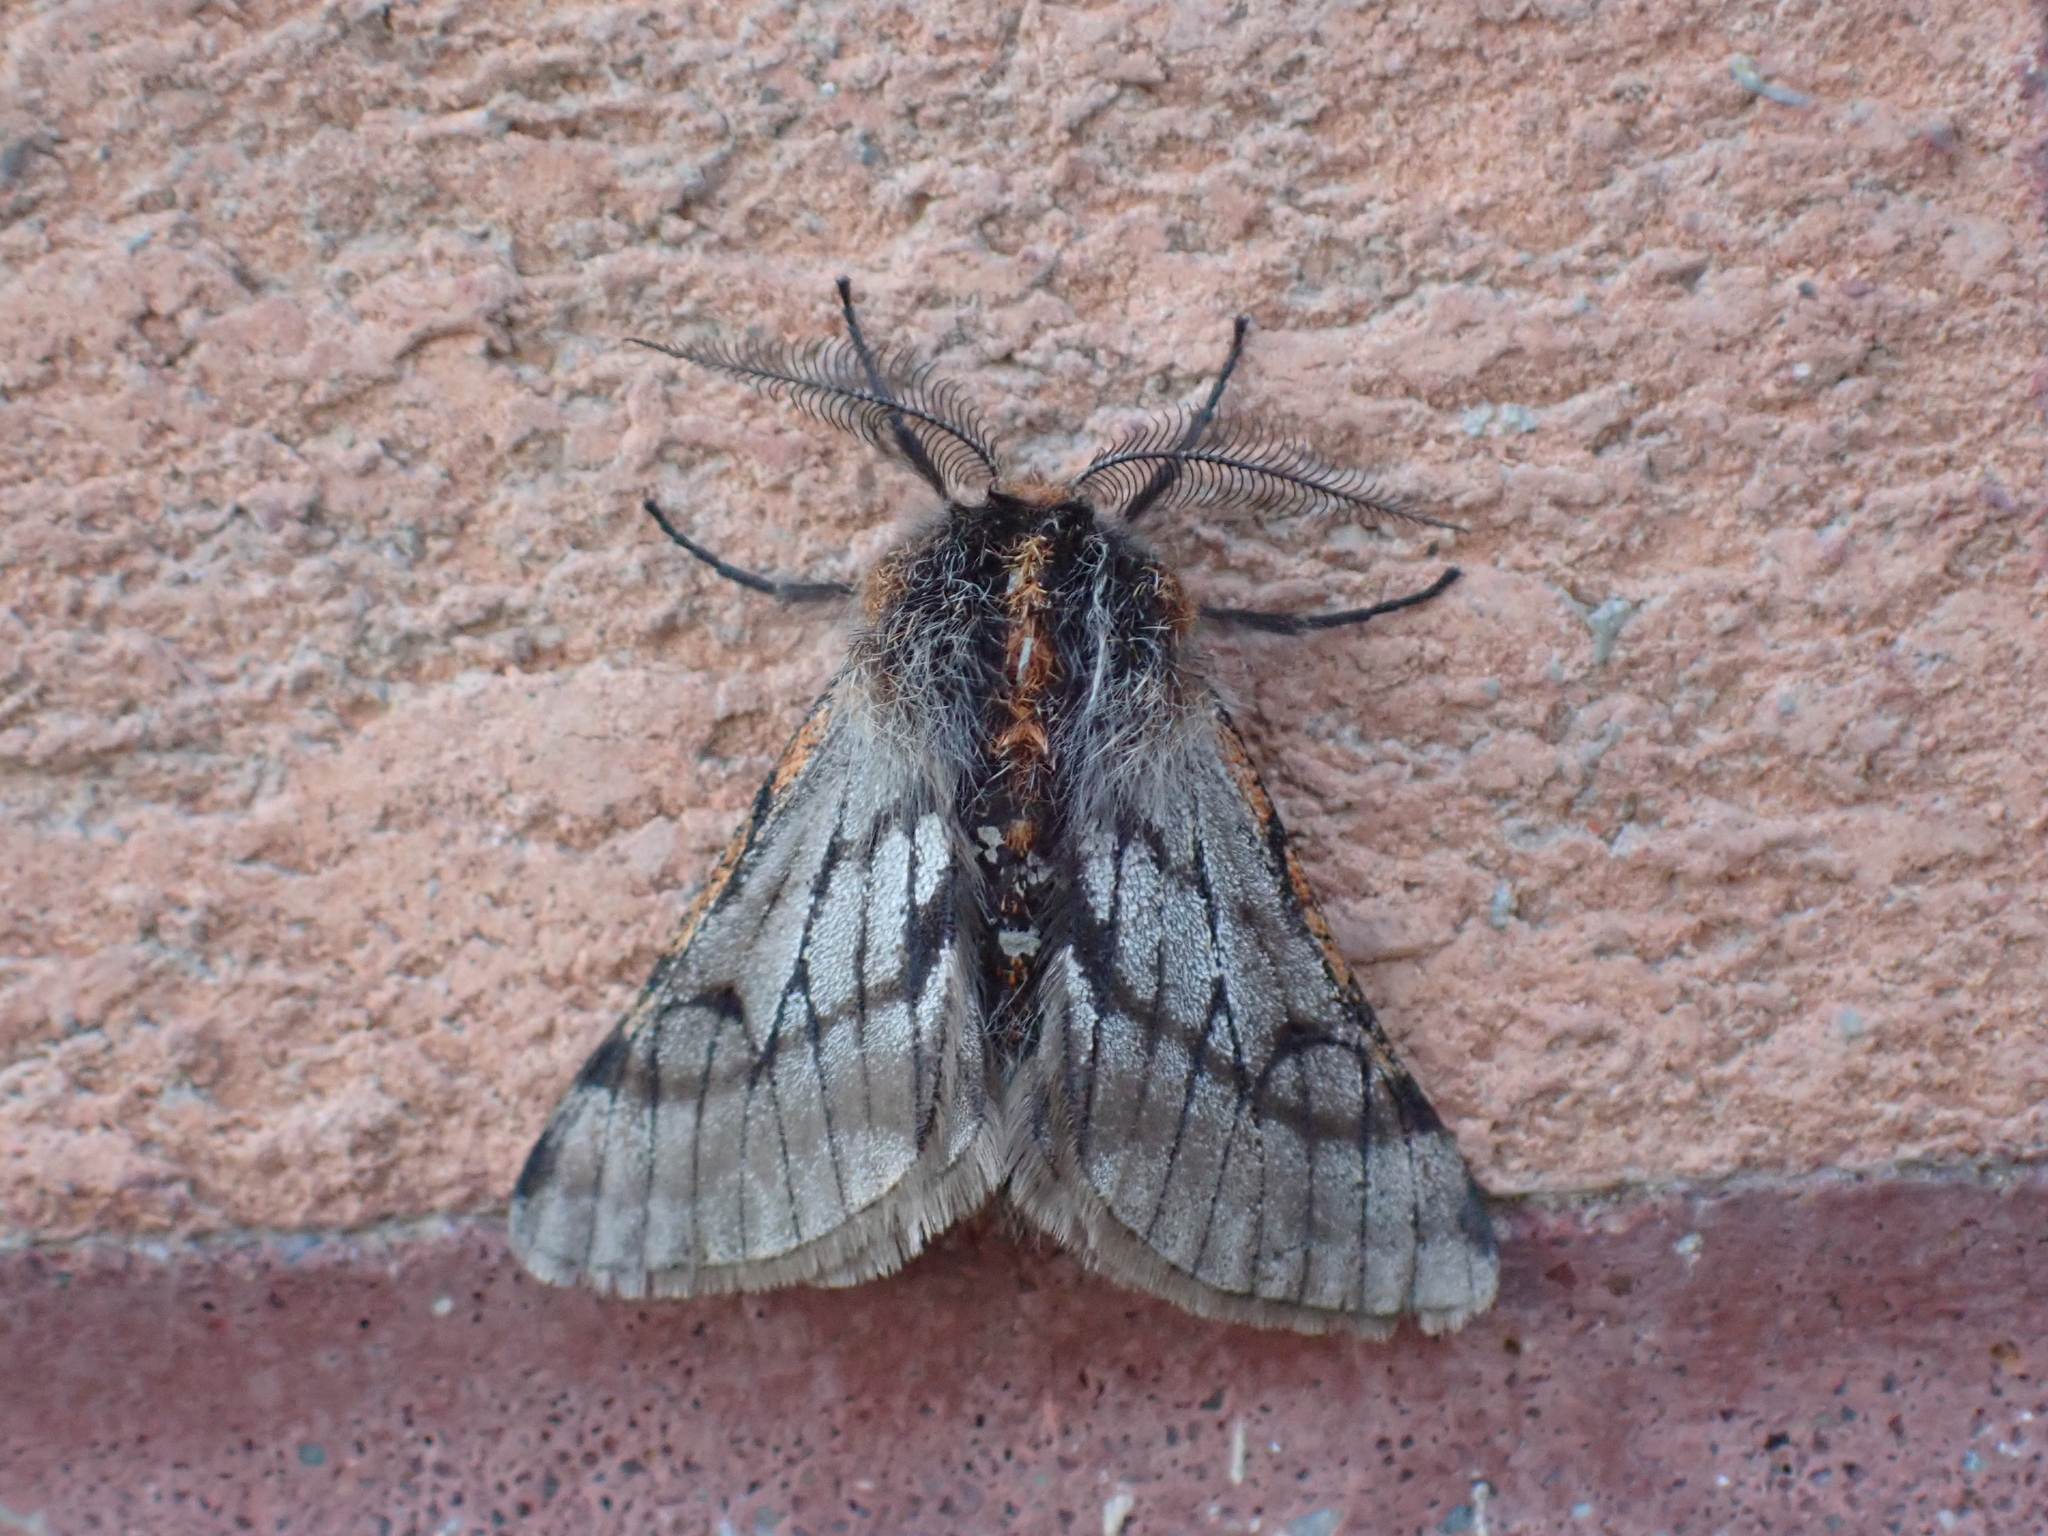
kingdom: Animalia
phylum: Arthropoda
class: Insecta
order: Lepidoptera
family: Geometridae
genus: Lycia
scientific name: Lycia rachelae
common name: Twilight moth
